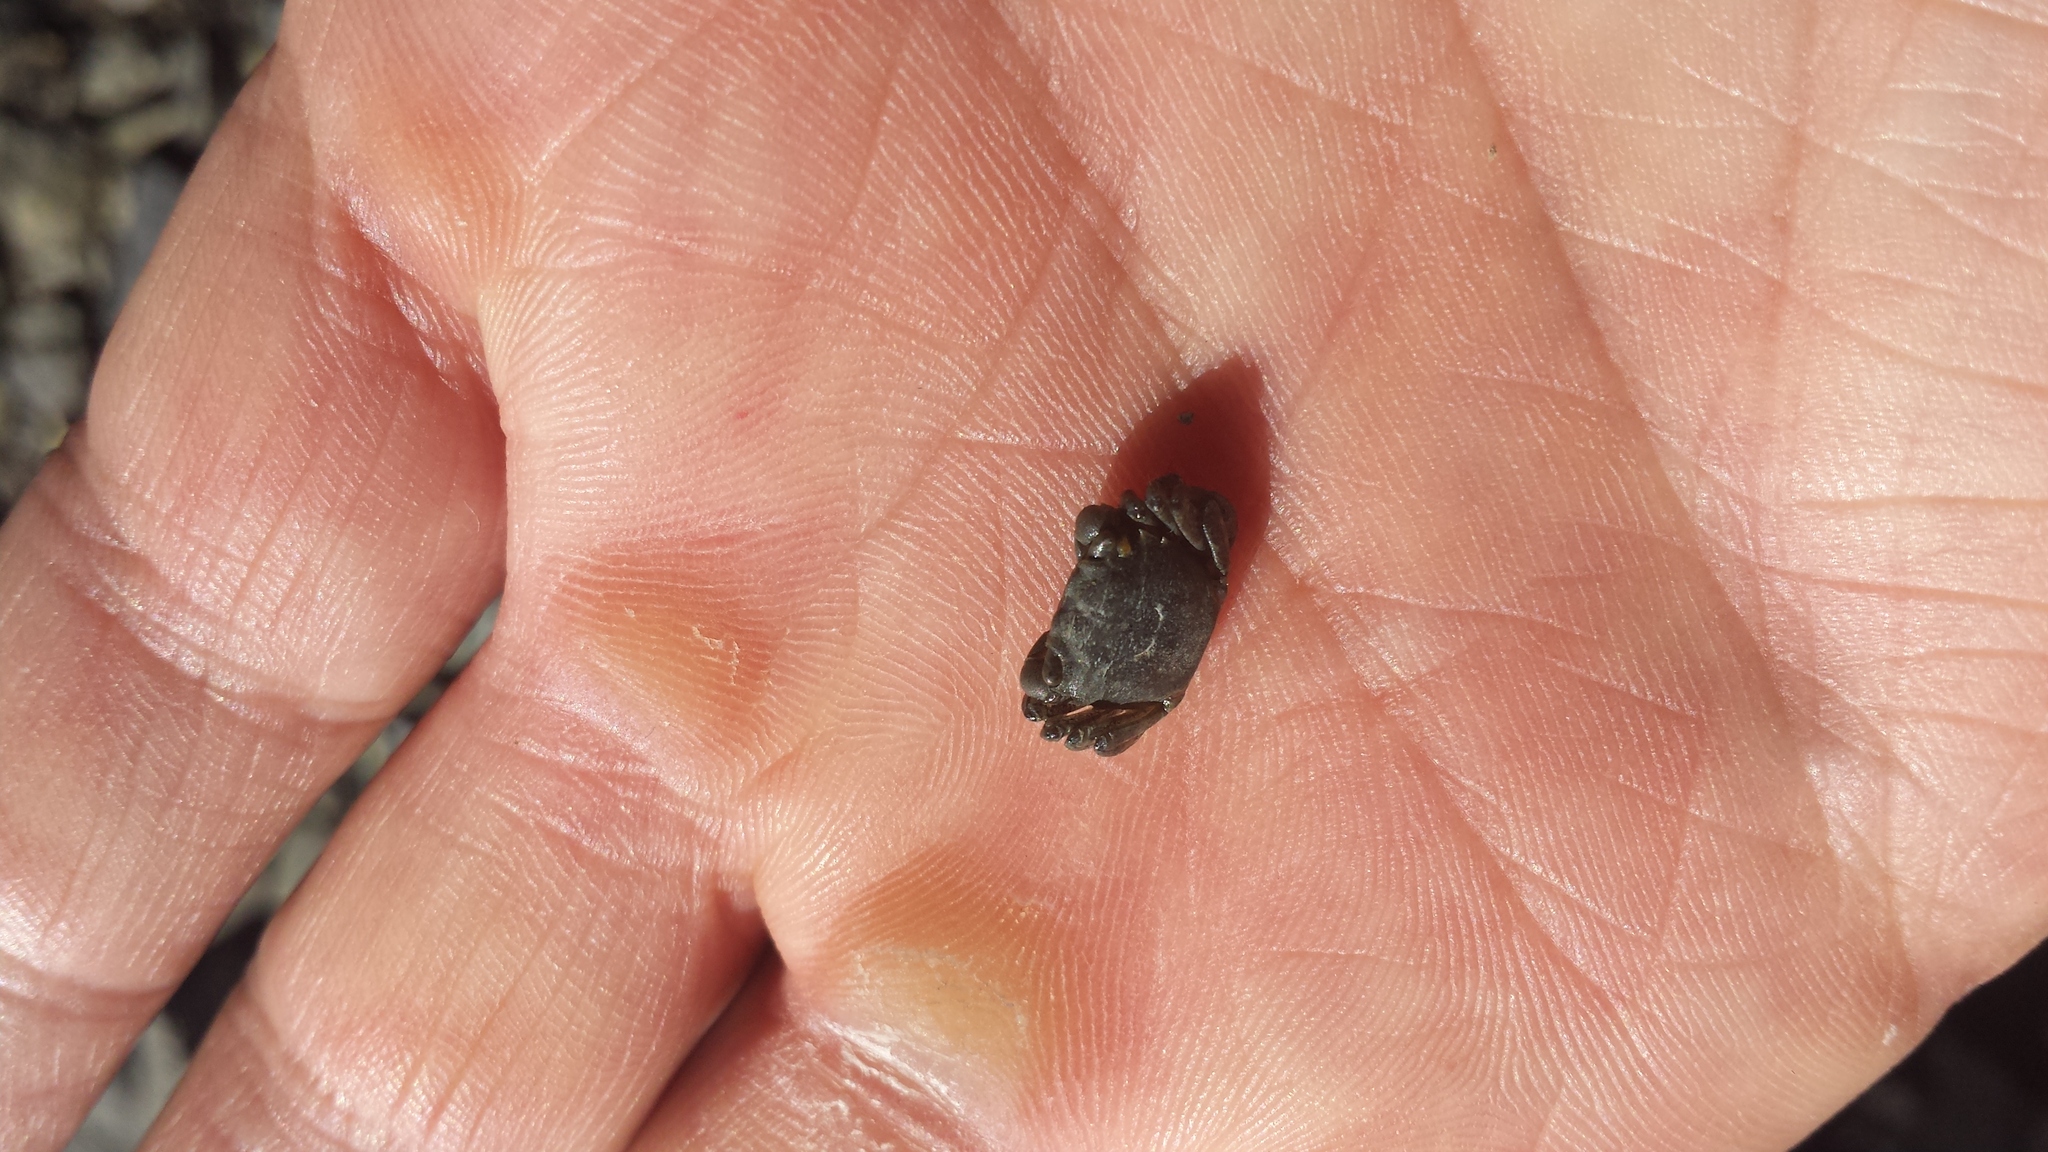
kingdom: Animalia
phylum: Arthropoda
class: Malacostraca
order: Decapoda
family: Varunidae
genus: Hemigrapsus
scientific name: Hemigrapsus oregonensis
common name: Yellow shore crab
